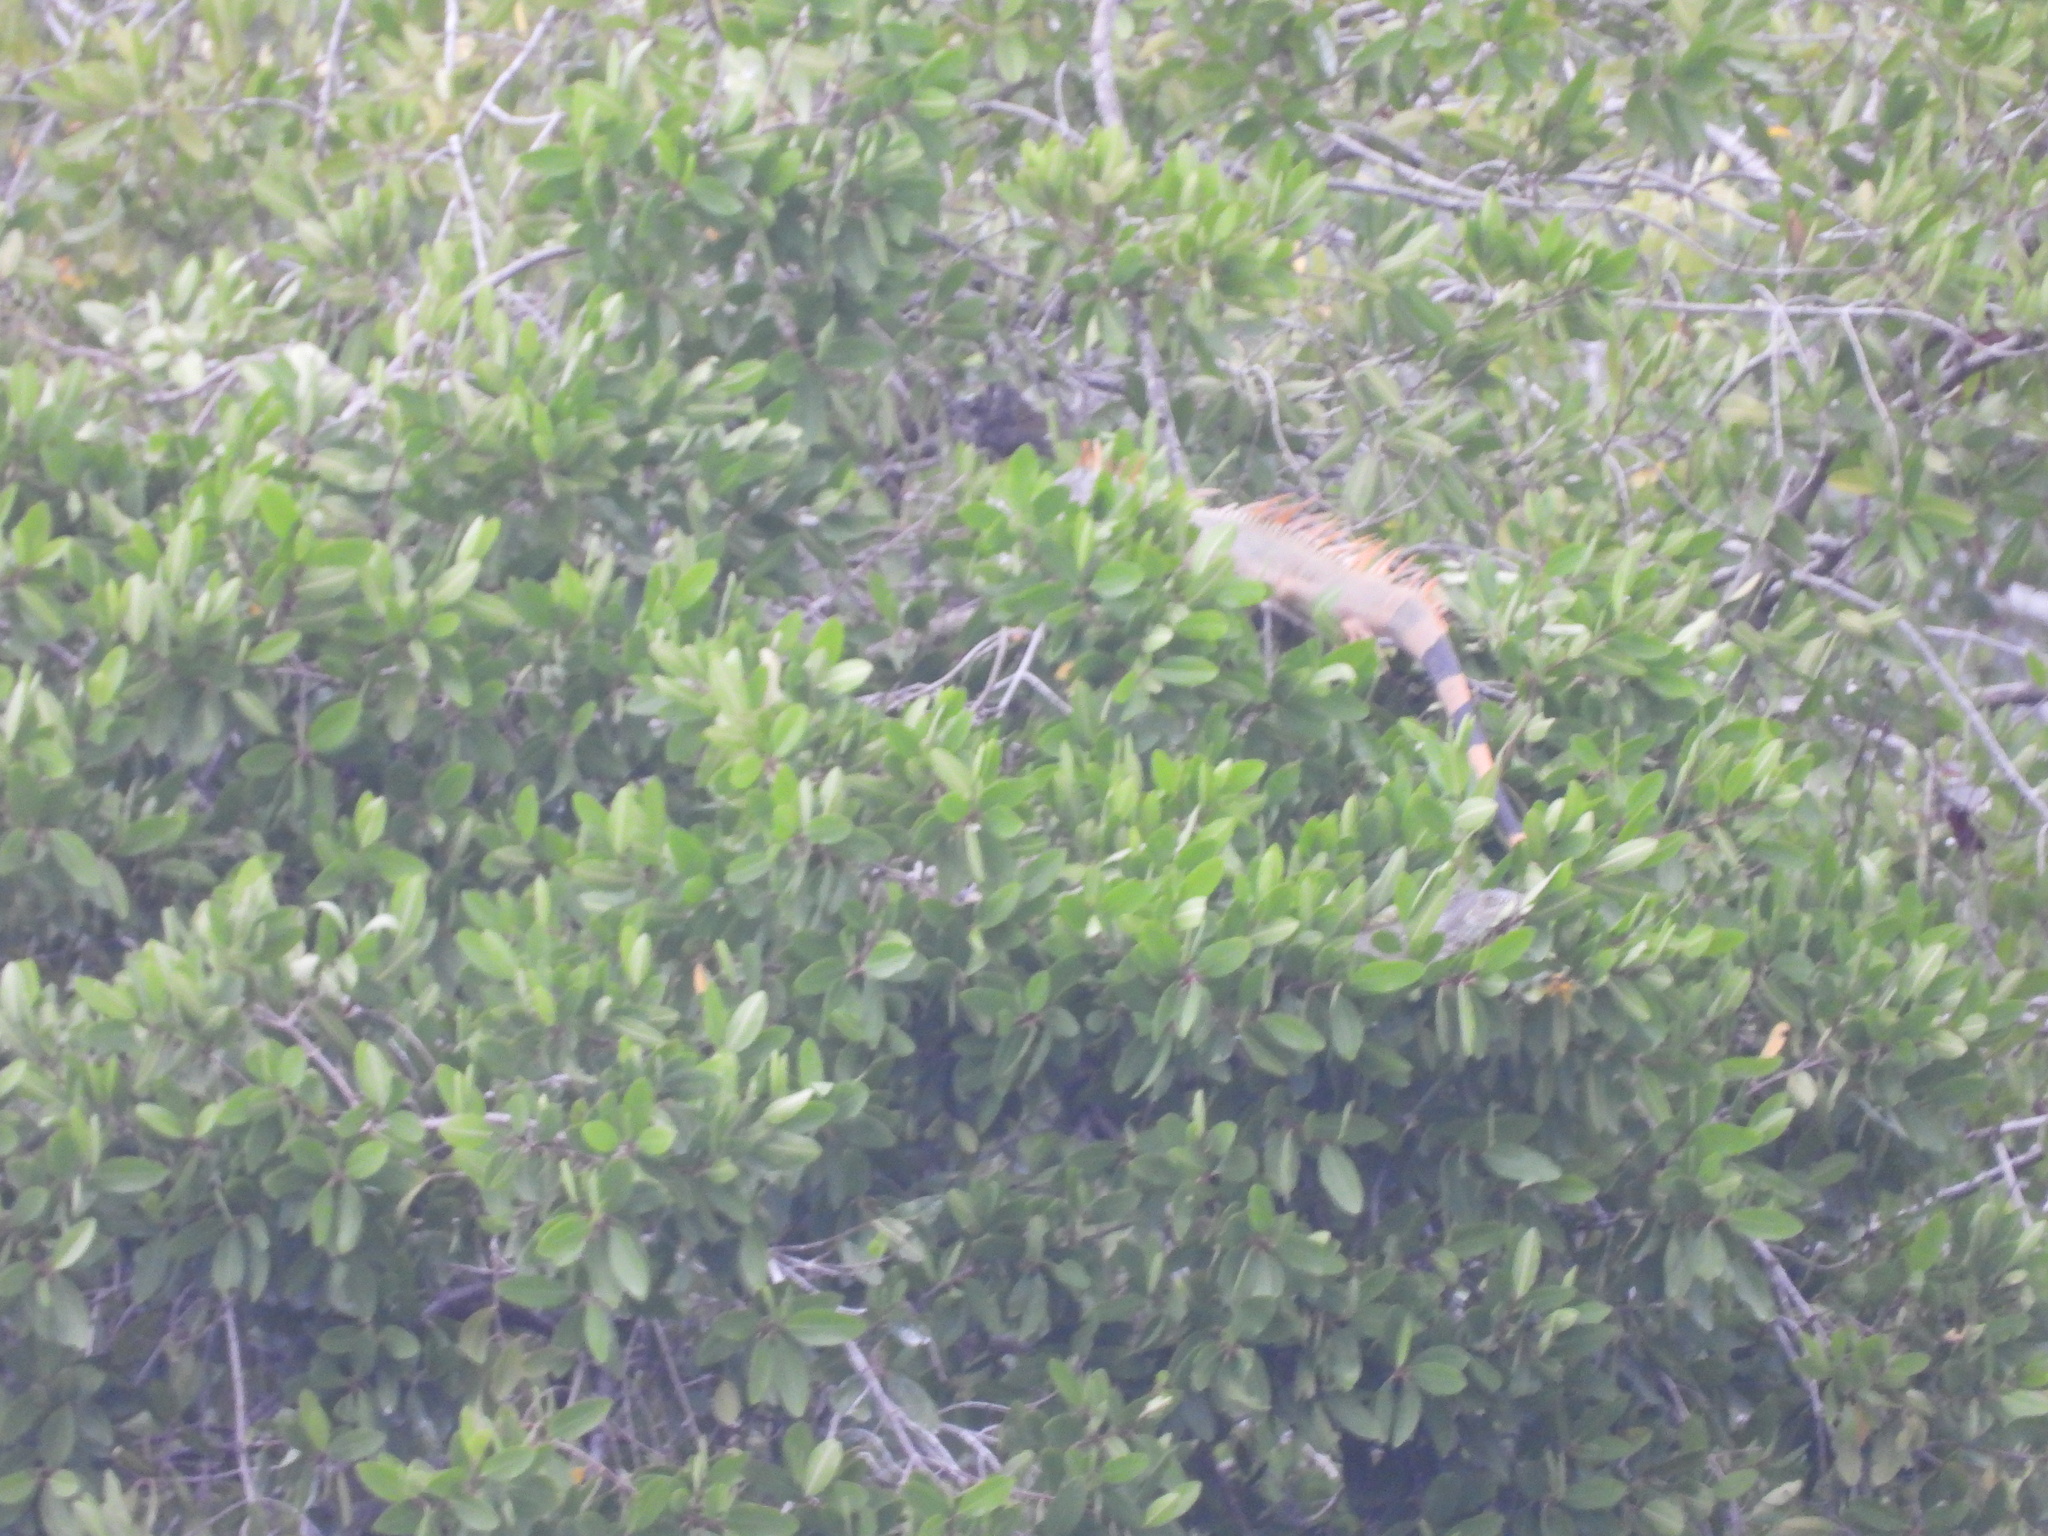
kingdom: Animalia
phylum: Chordata
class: Squamata
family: Iguanidae
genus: Iguana
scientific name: Iguana iguana
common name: Green iguana
